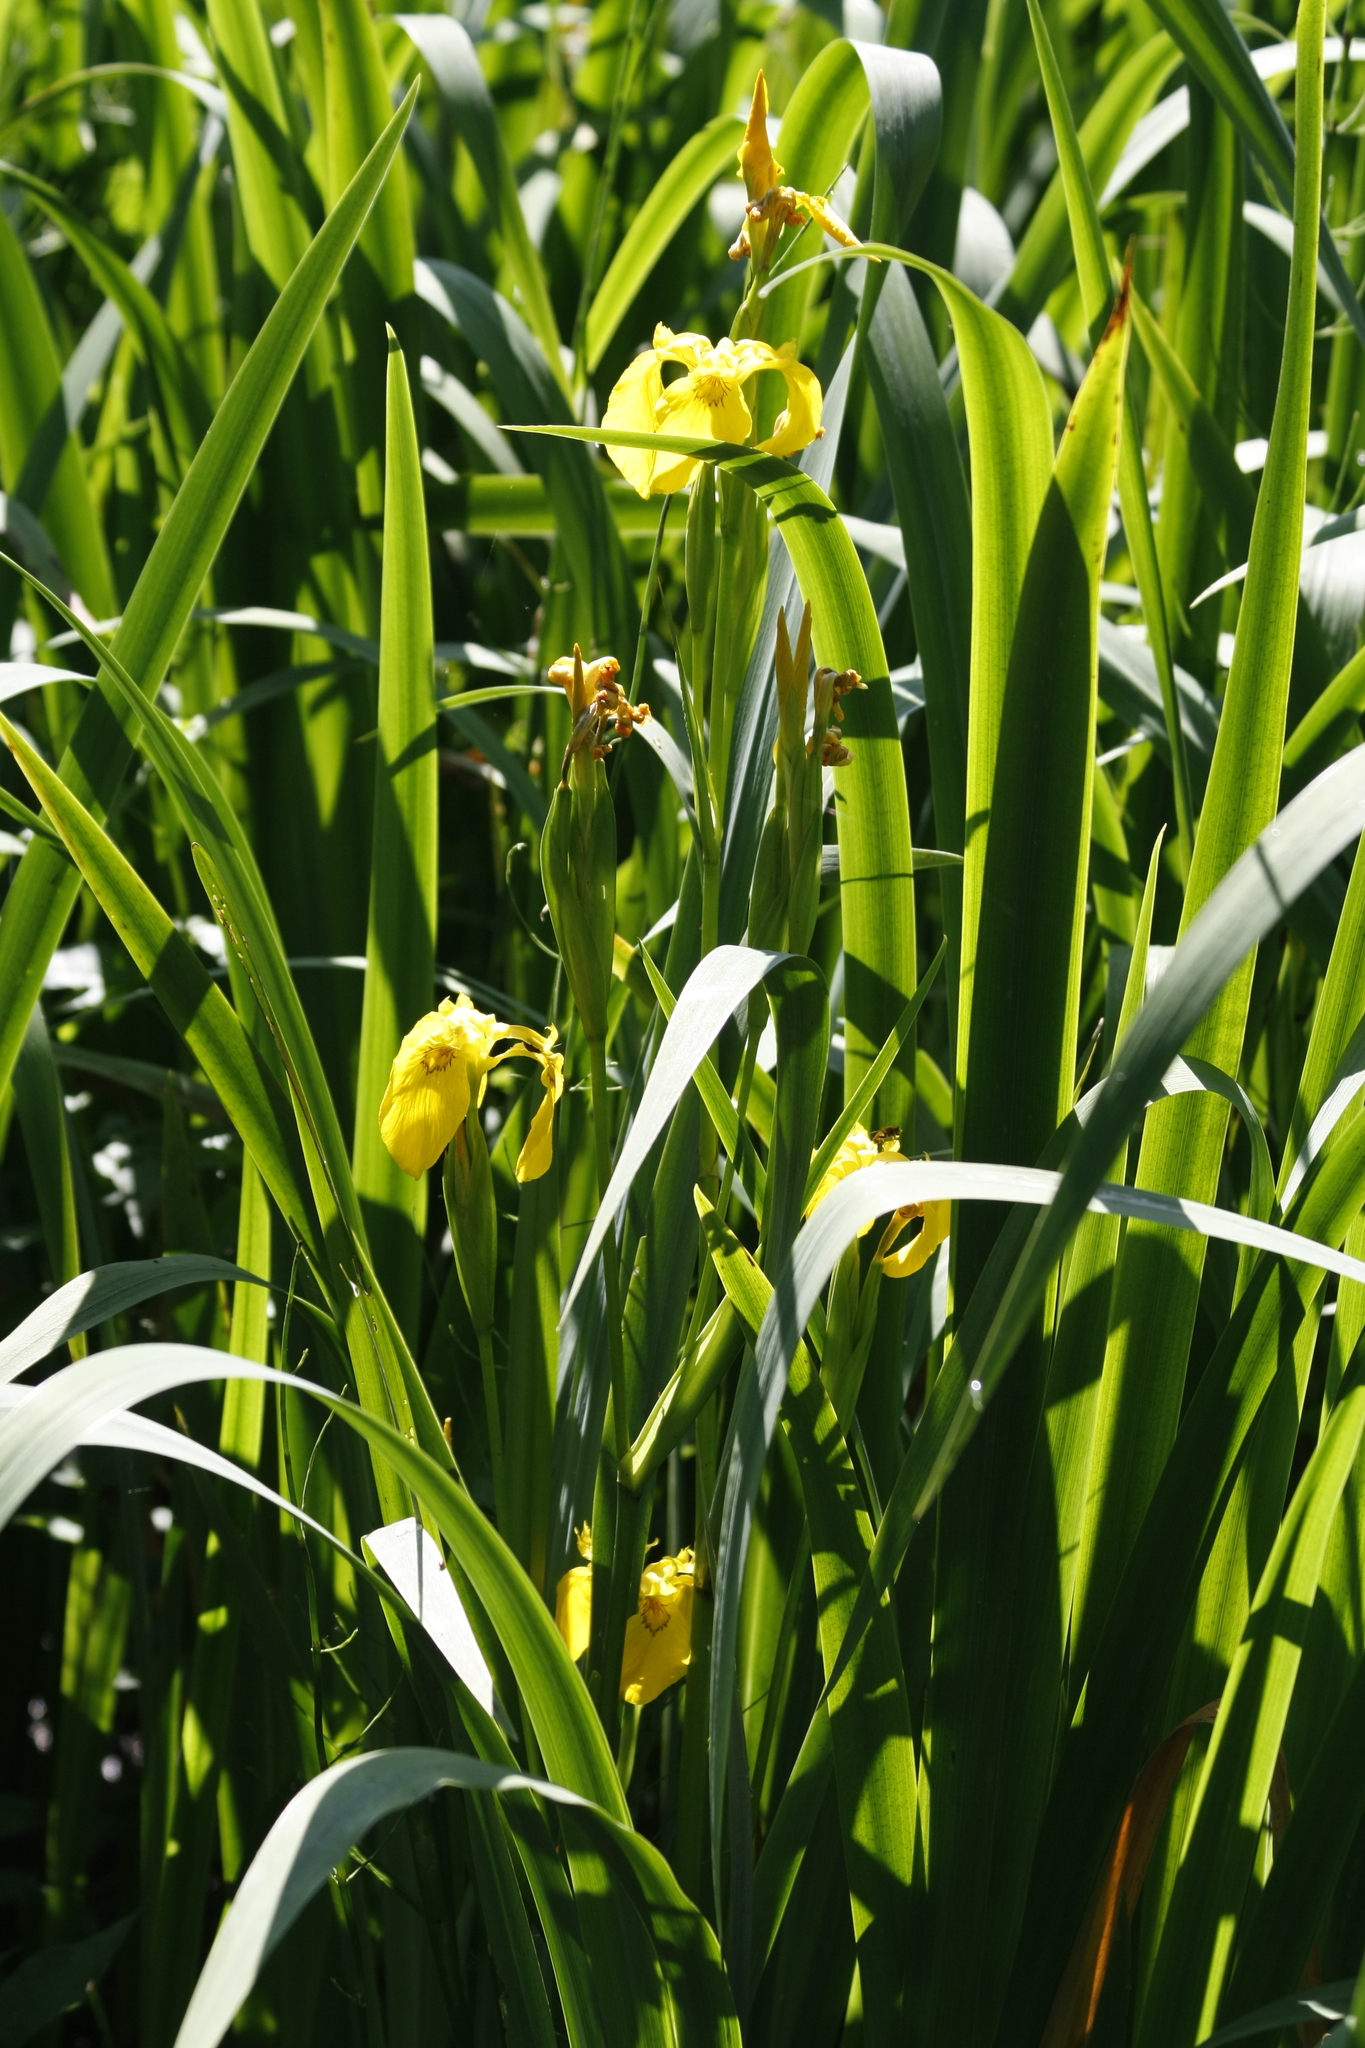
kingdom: Plantae
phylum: Tracheophyta
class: Liliopsida
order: Asparagales
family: Iridaceae
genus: Iris
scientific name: Iris pseudacorus
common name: Yellow flag
